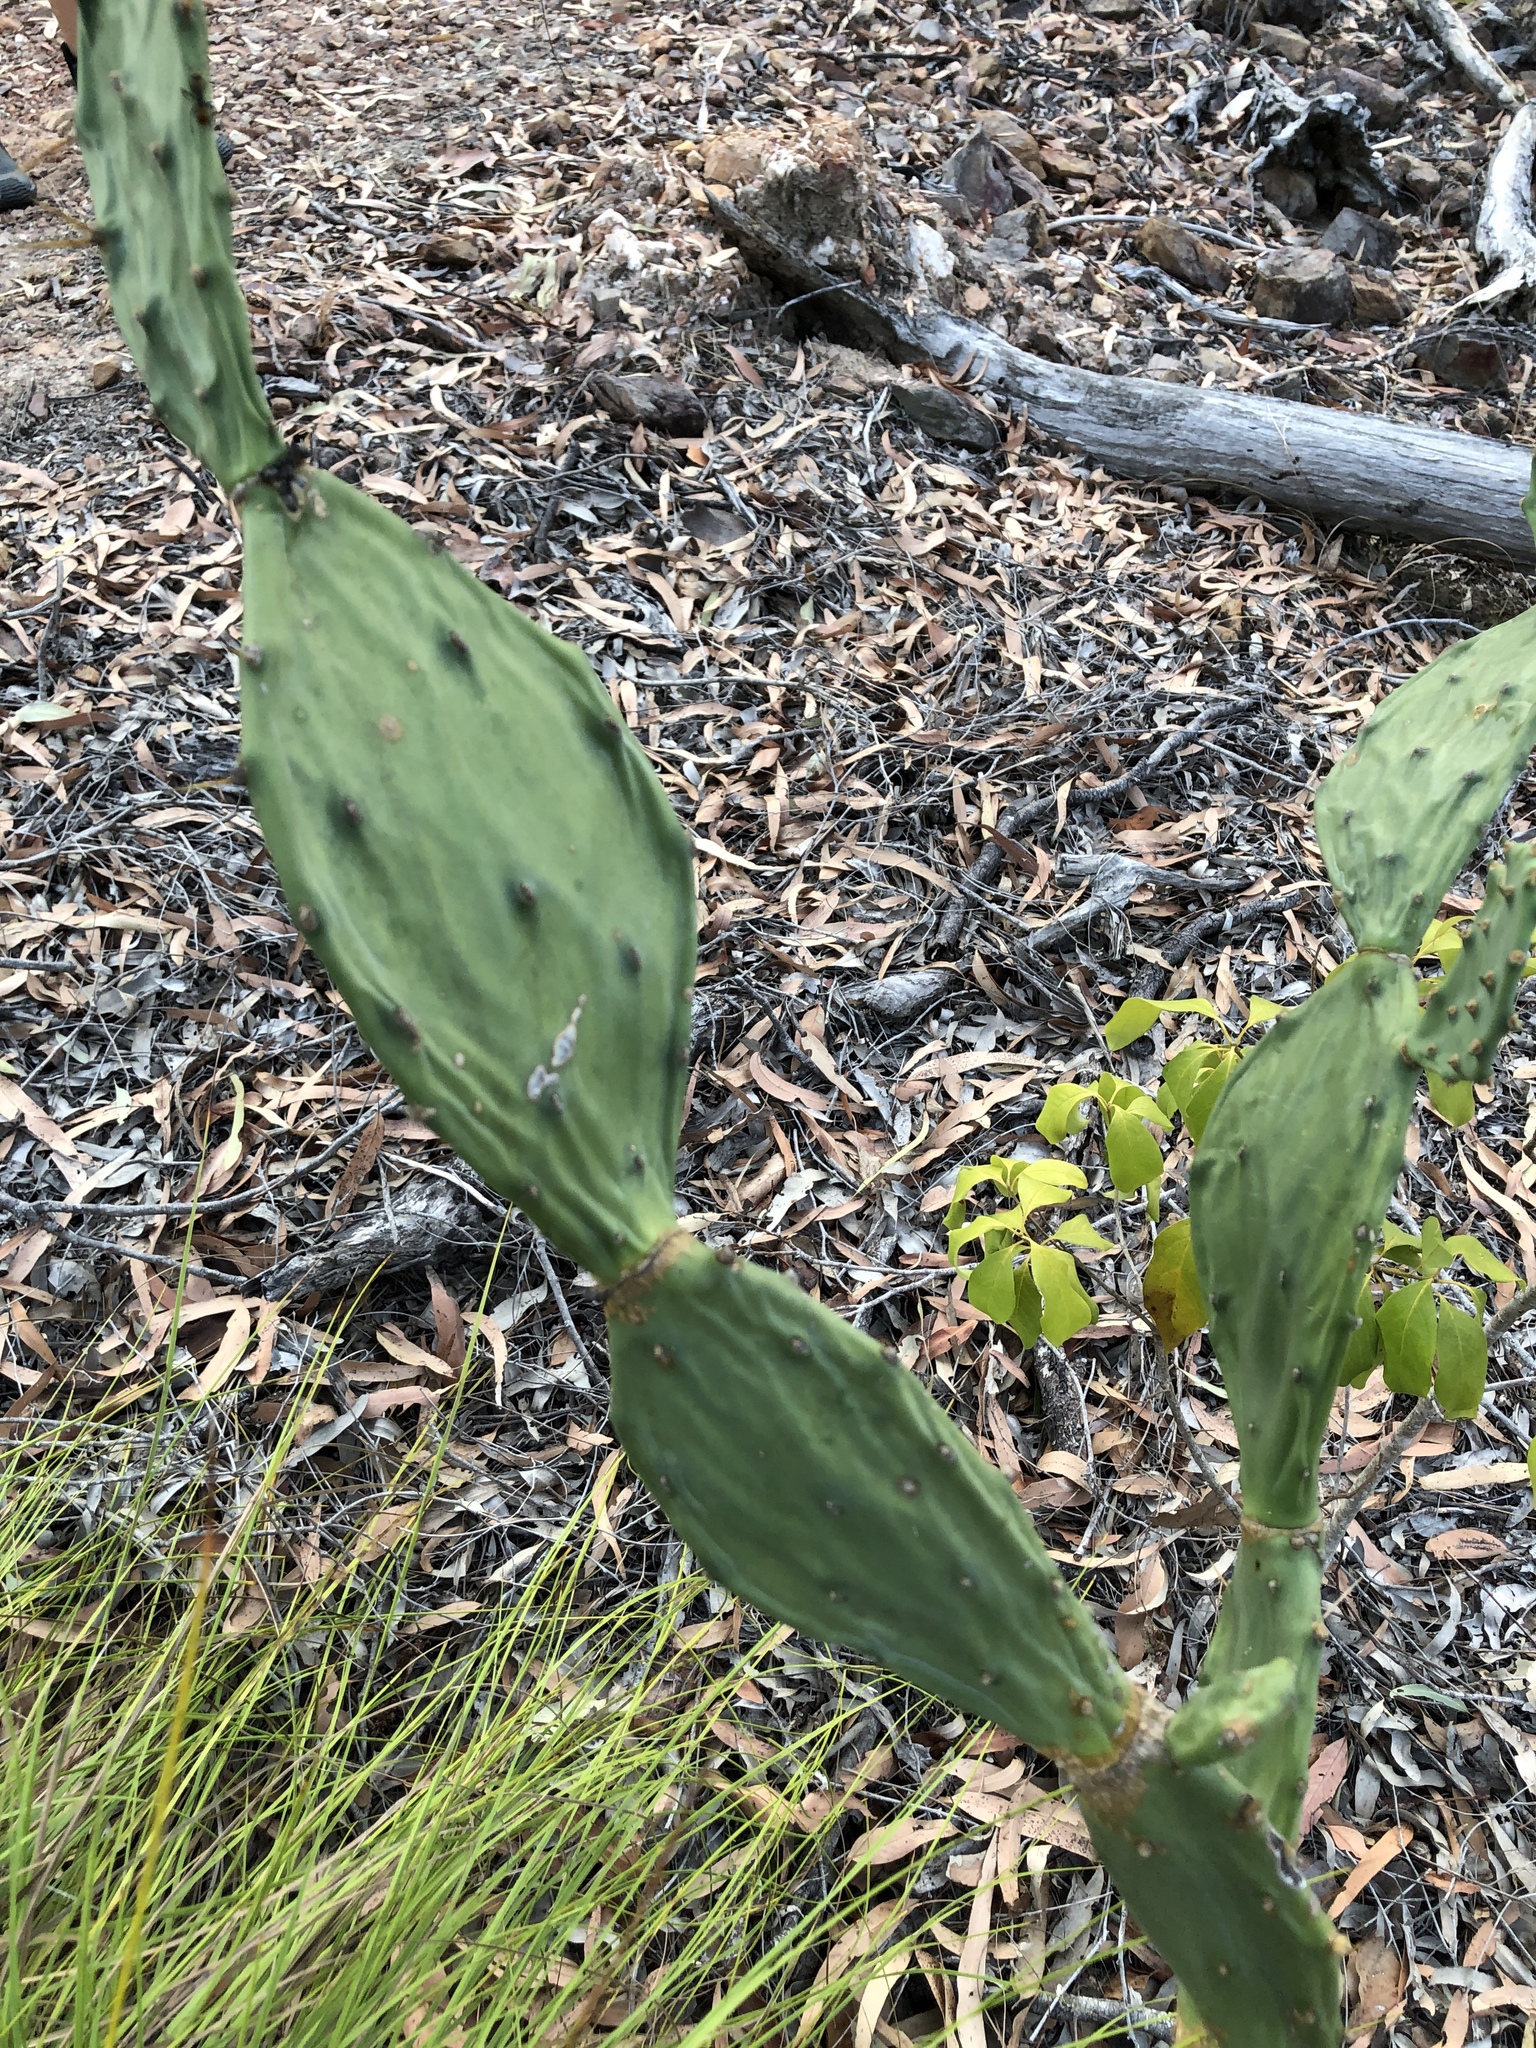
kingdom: Plantae
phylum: Tracheophyta
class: Magnoliopsida
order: Caryophyllales
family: Cactaceae
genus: Opuntia
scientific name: Opuntia stricta
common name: Erect pricklypear
